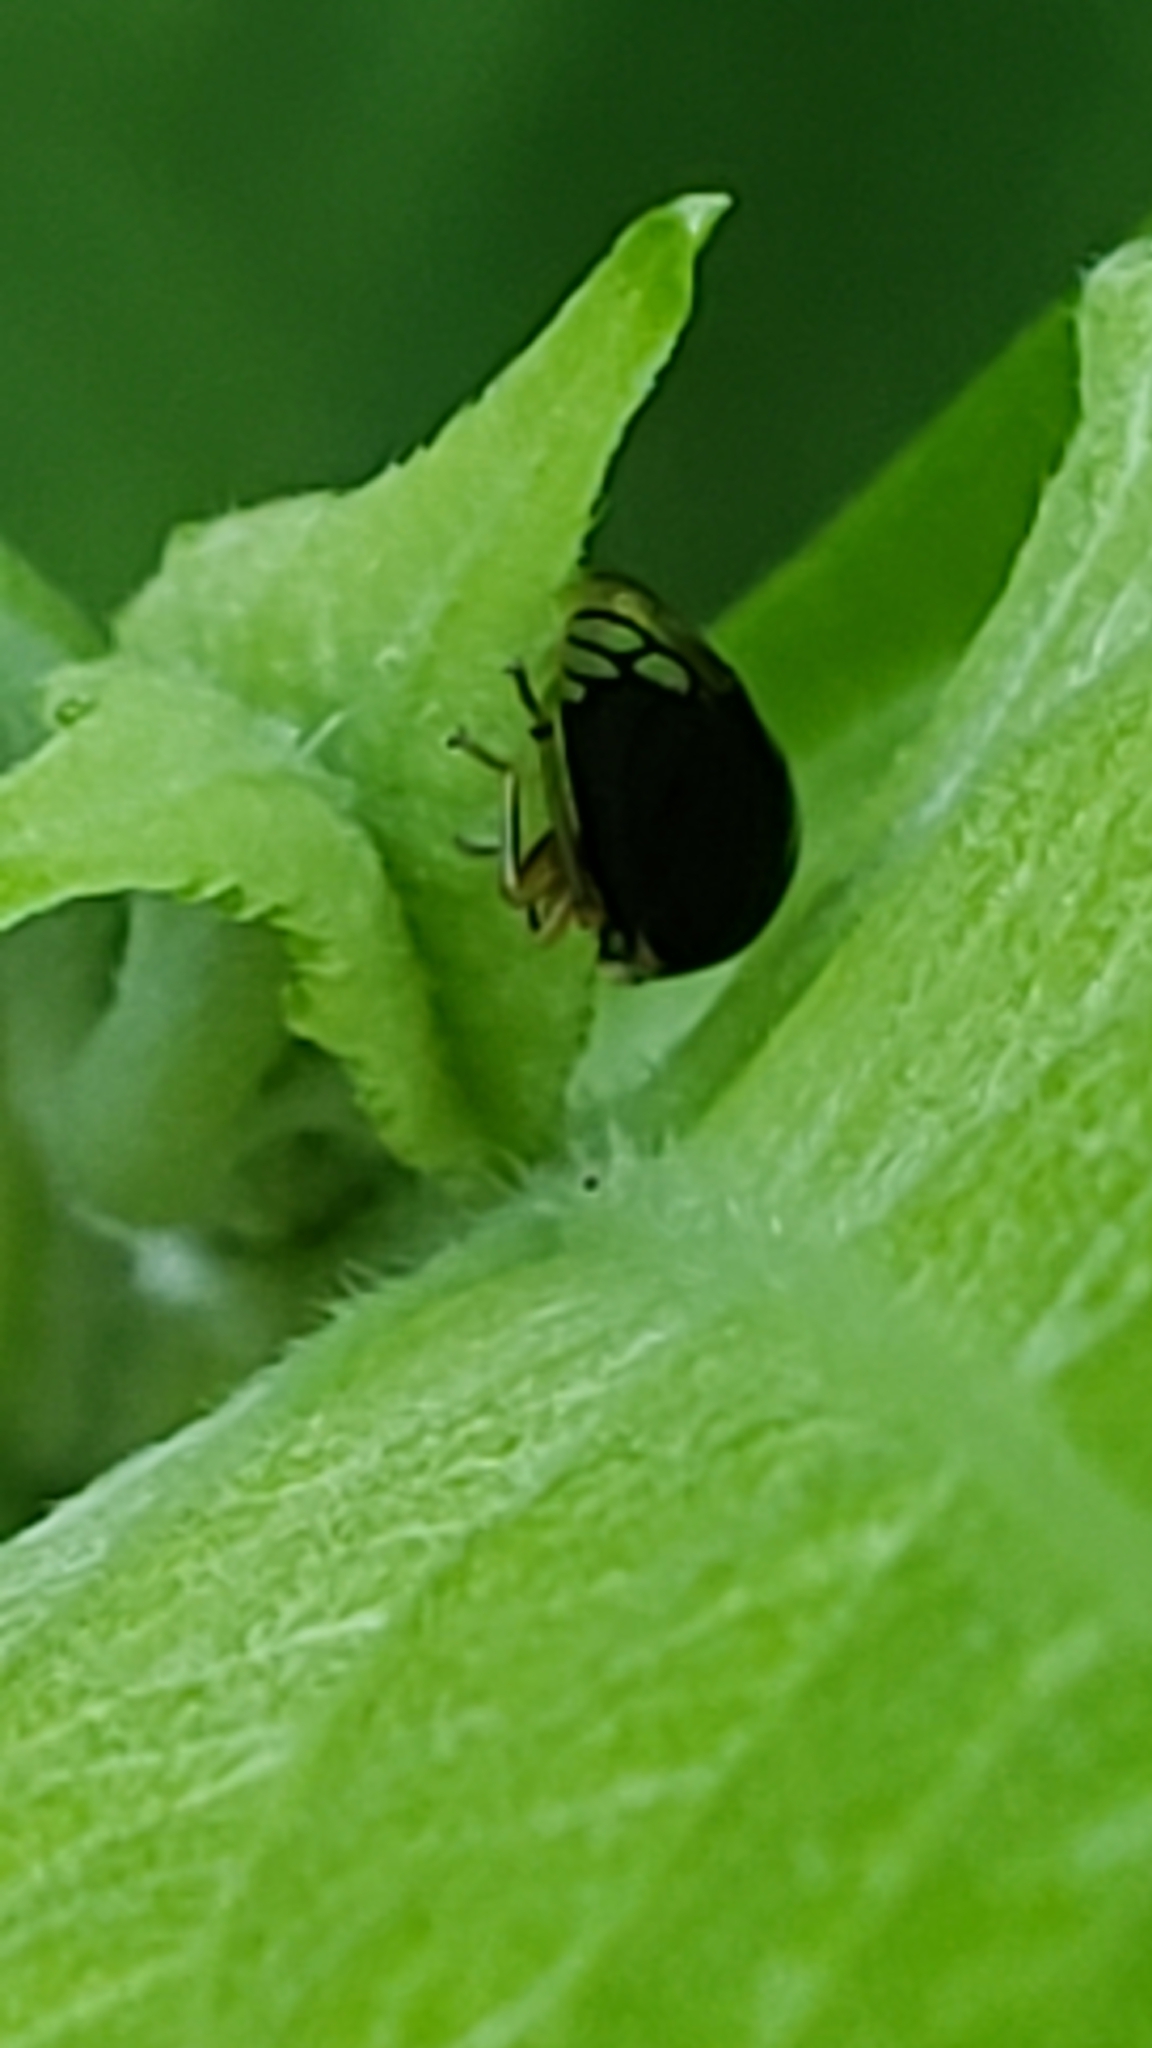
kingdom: Animalia
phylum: Arthropoda
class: Insecta
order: Hemiptera
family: Membracidae
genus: Acutalis
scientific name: Acutalis tartarea
